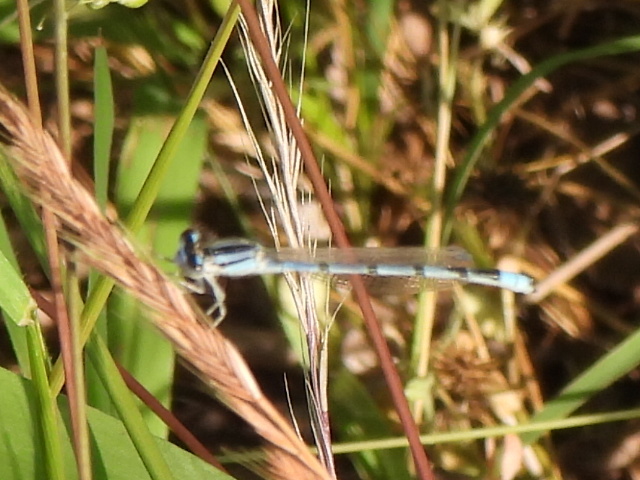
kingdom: Animalia
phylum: Arthropoda
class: Insecta
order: Odonata
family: Coenagrionidae
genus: Enallagma
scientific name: Enallagma civile
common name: Damselfly
